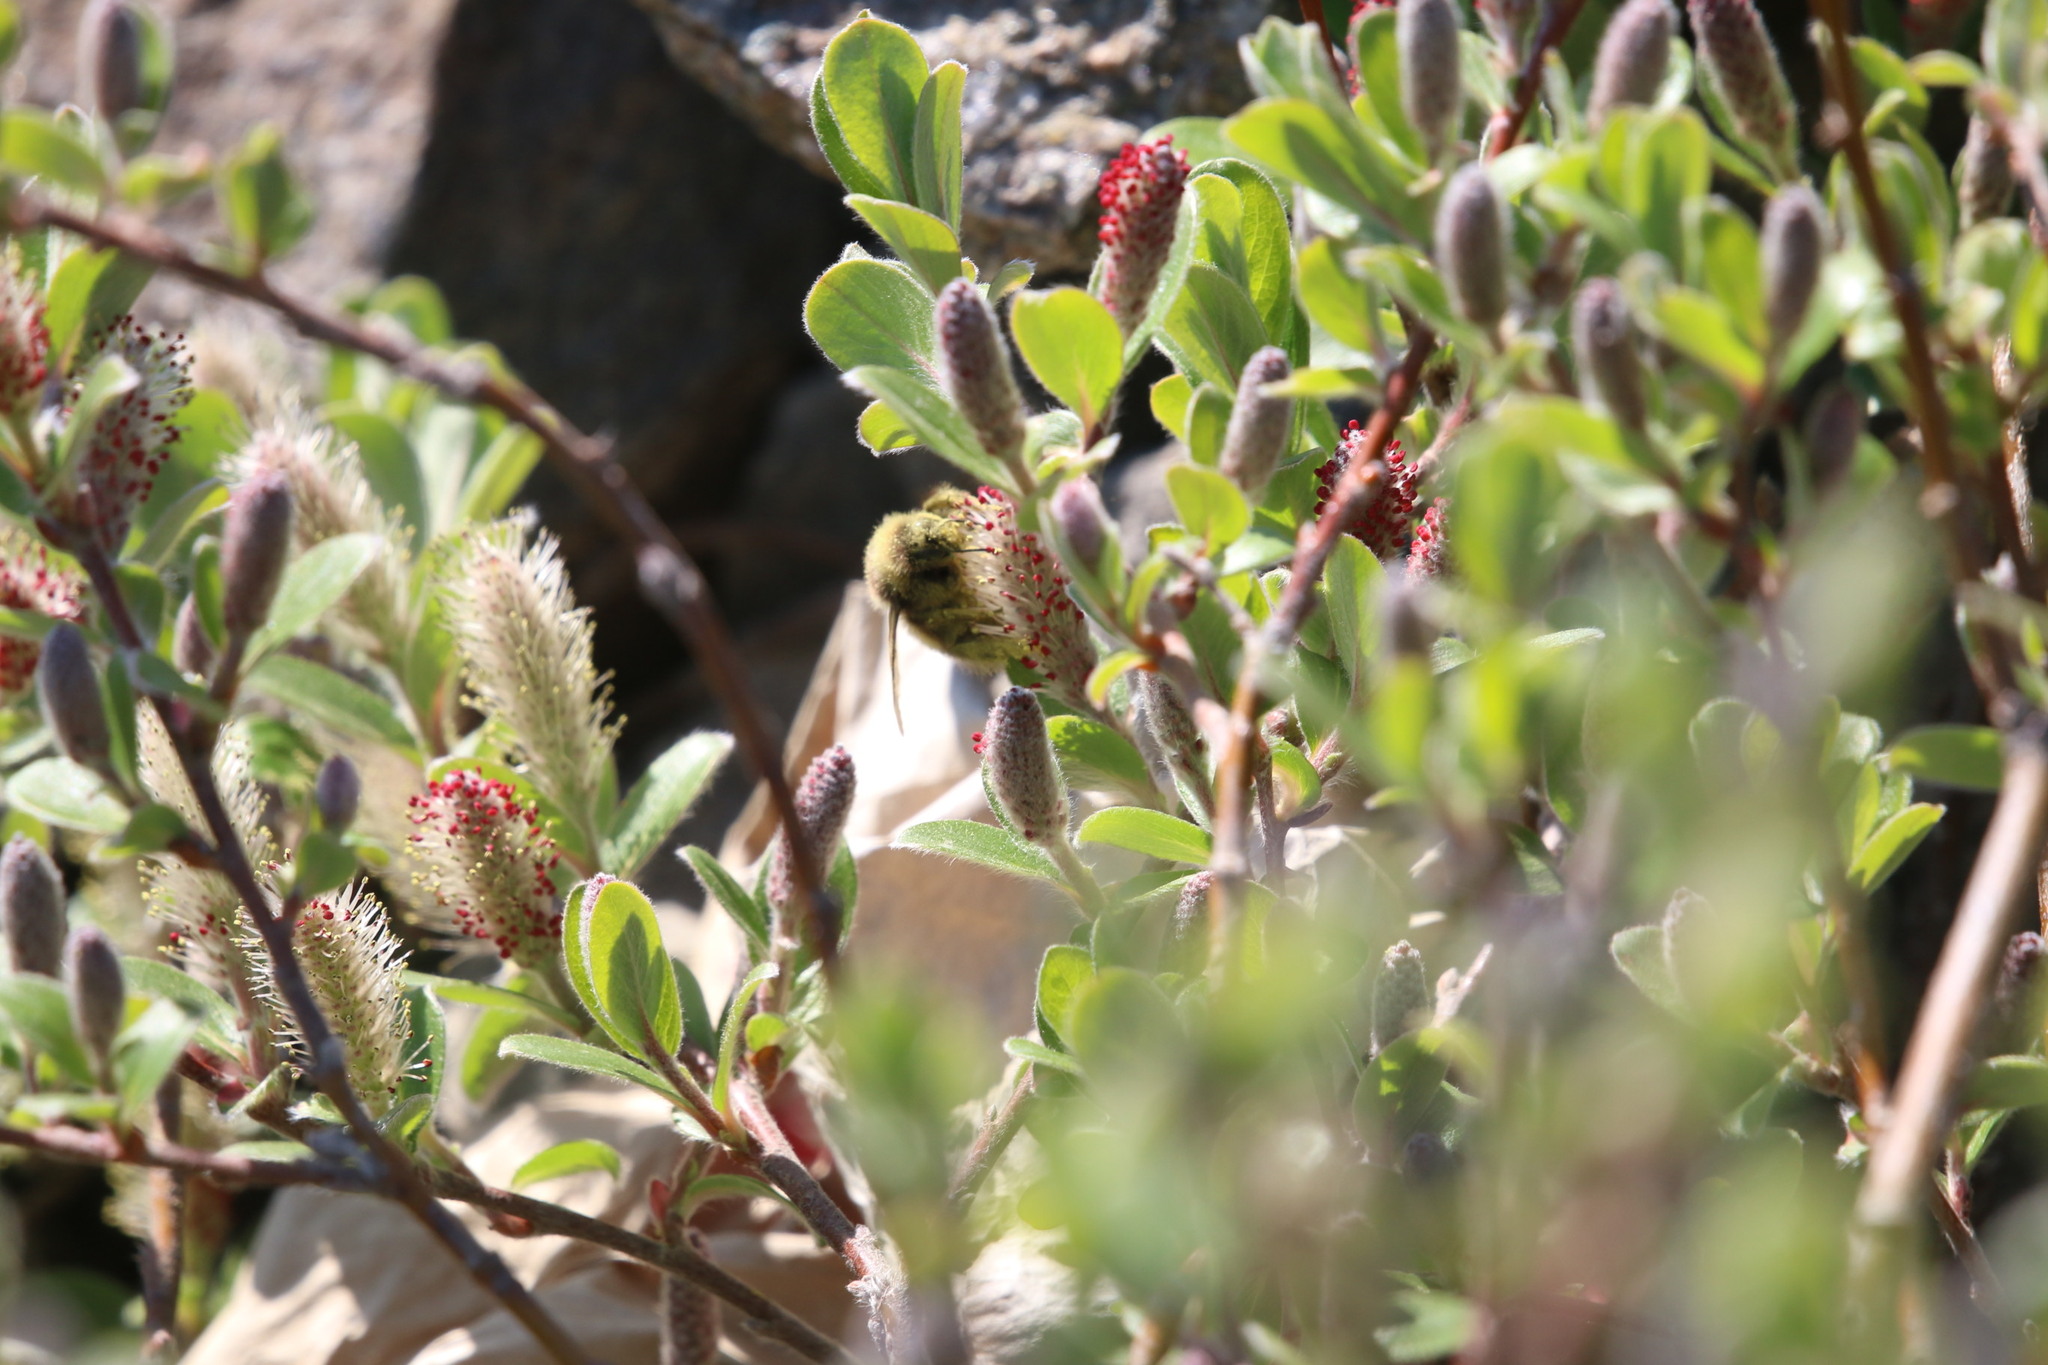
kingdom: Animalia
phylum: Arthropoda
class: Insecta
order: Hymenoptera
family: Apidae
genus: Bombus
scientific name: Bombus
